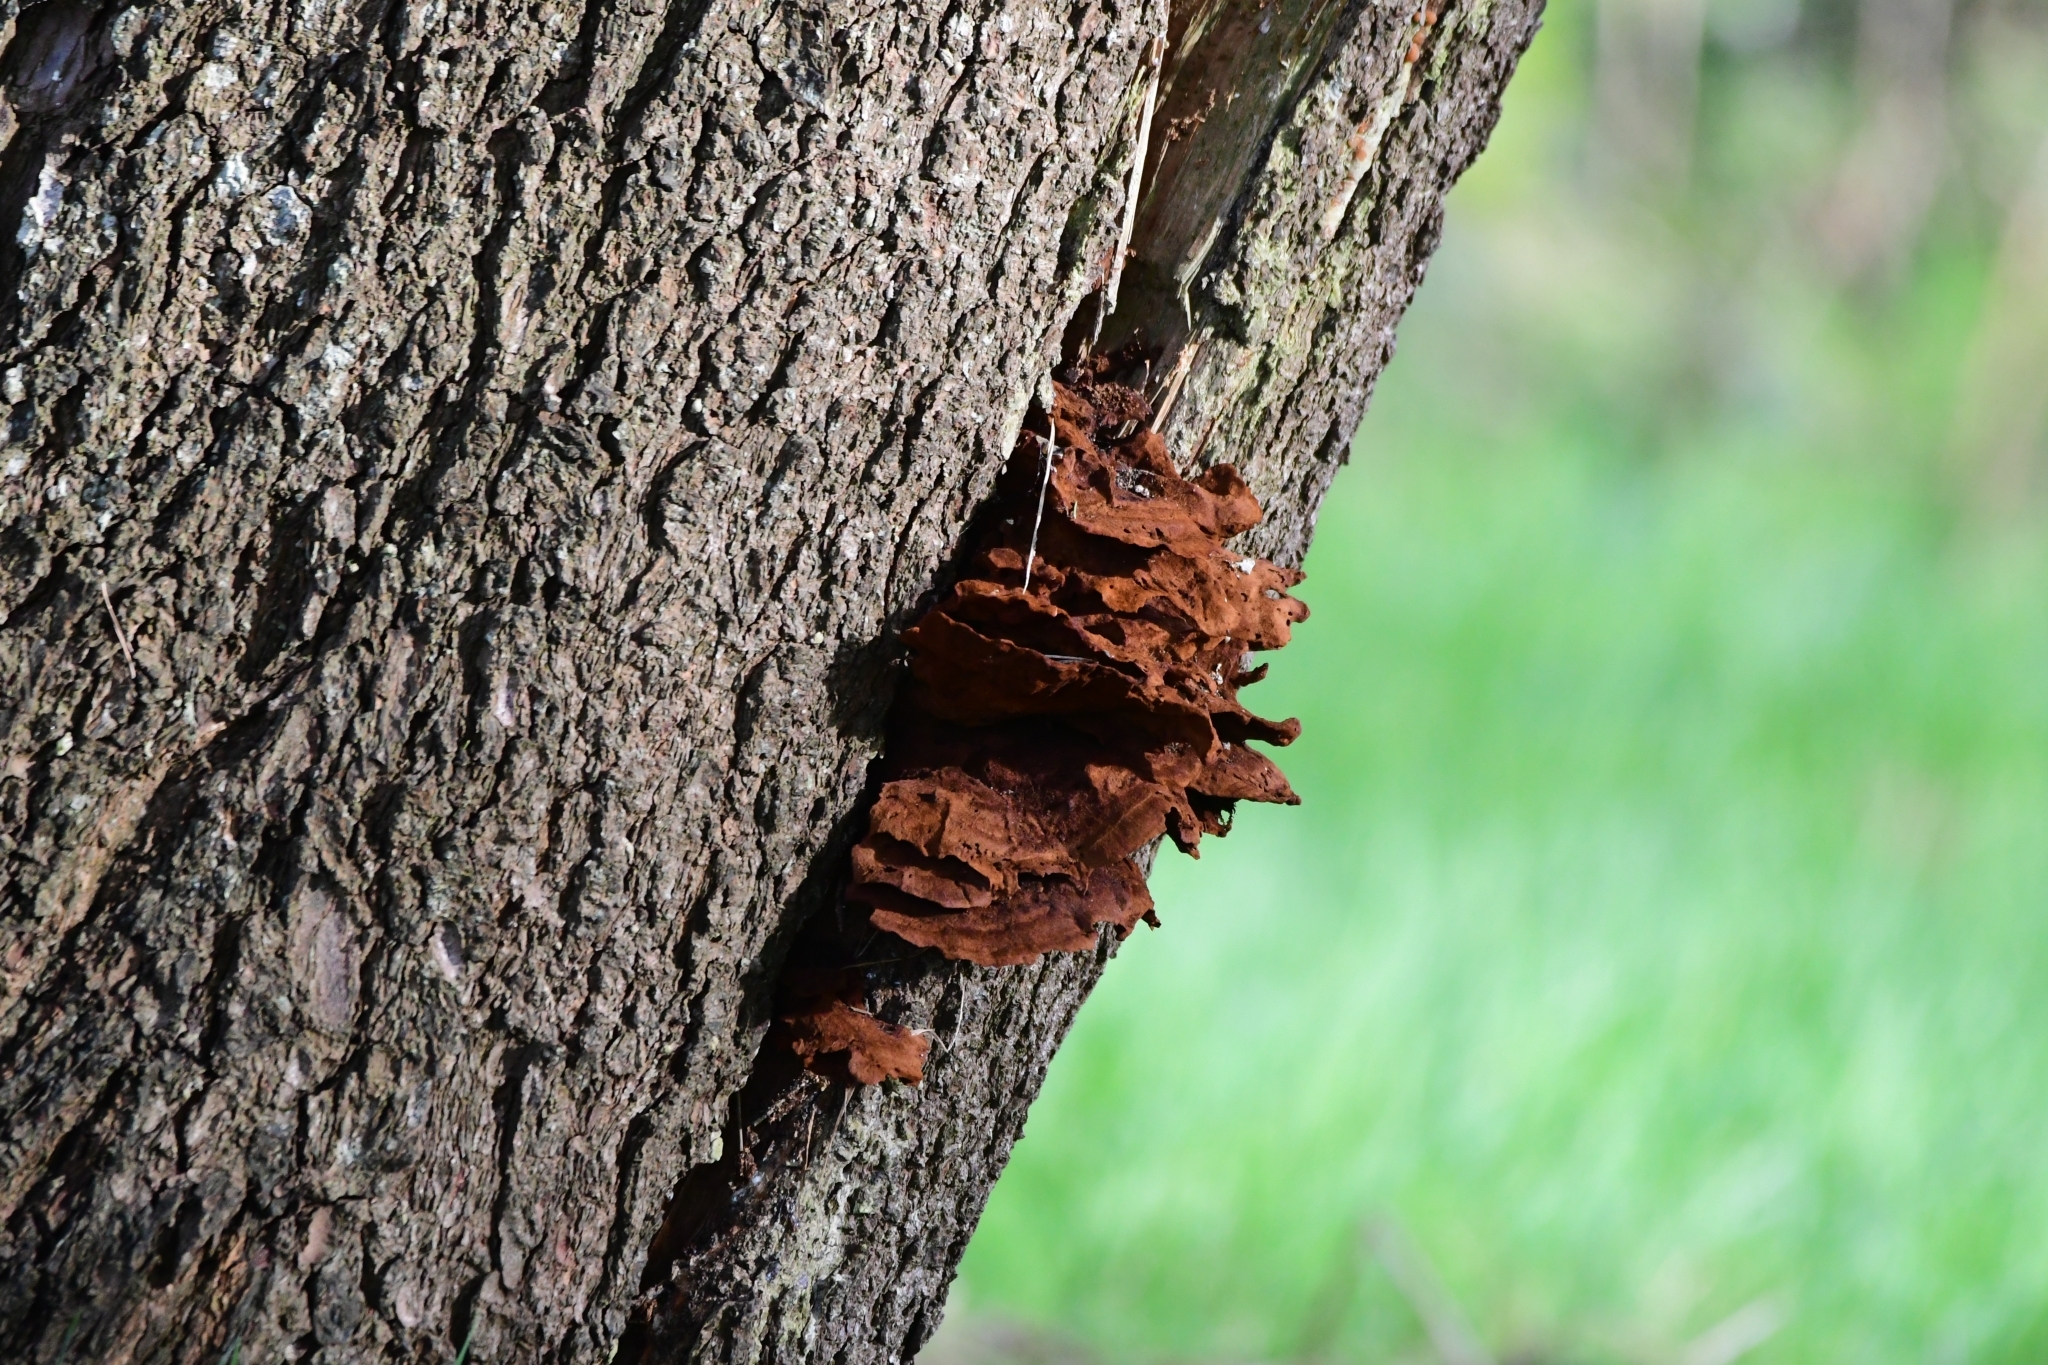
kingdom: Fungi
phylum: Basidiomycota
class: Agaricomycetes
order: Polyporales
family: Laetiporaceae
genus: Phaeolus
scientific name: Phaeolus schweinitzii
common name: Dyer's mazegill
